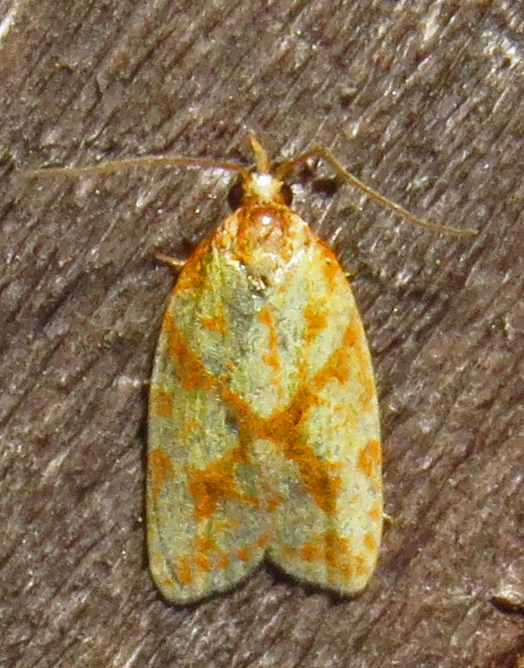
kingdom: Animalia
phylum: Arthropoda
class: Insecta
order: Lepidoptera
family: Tortricidae
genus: Sparganothis
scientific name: Sparganothis sulfureana
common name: Sparganothis fruitworm moth
